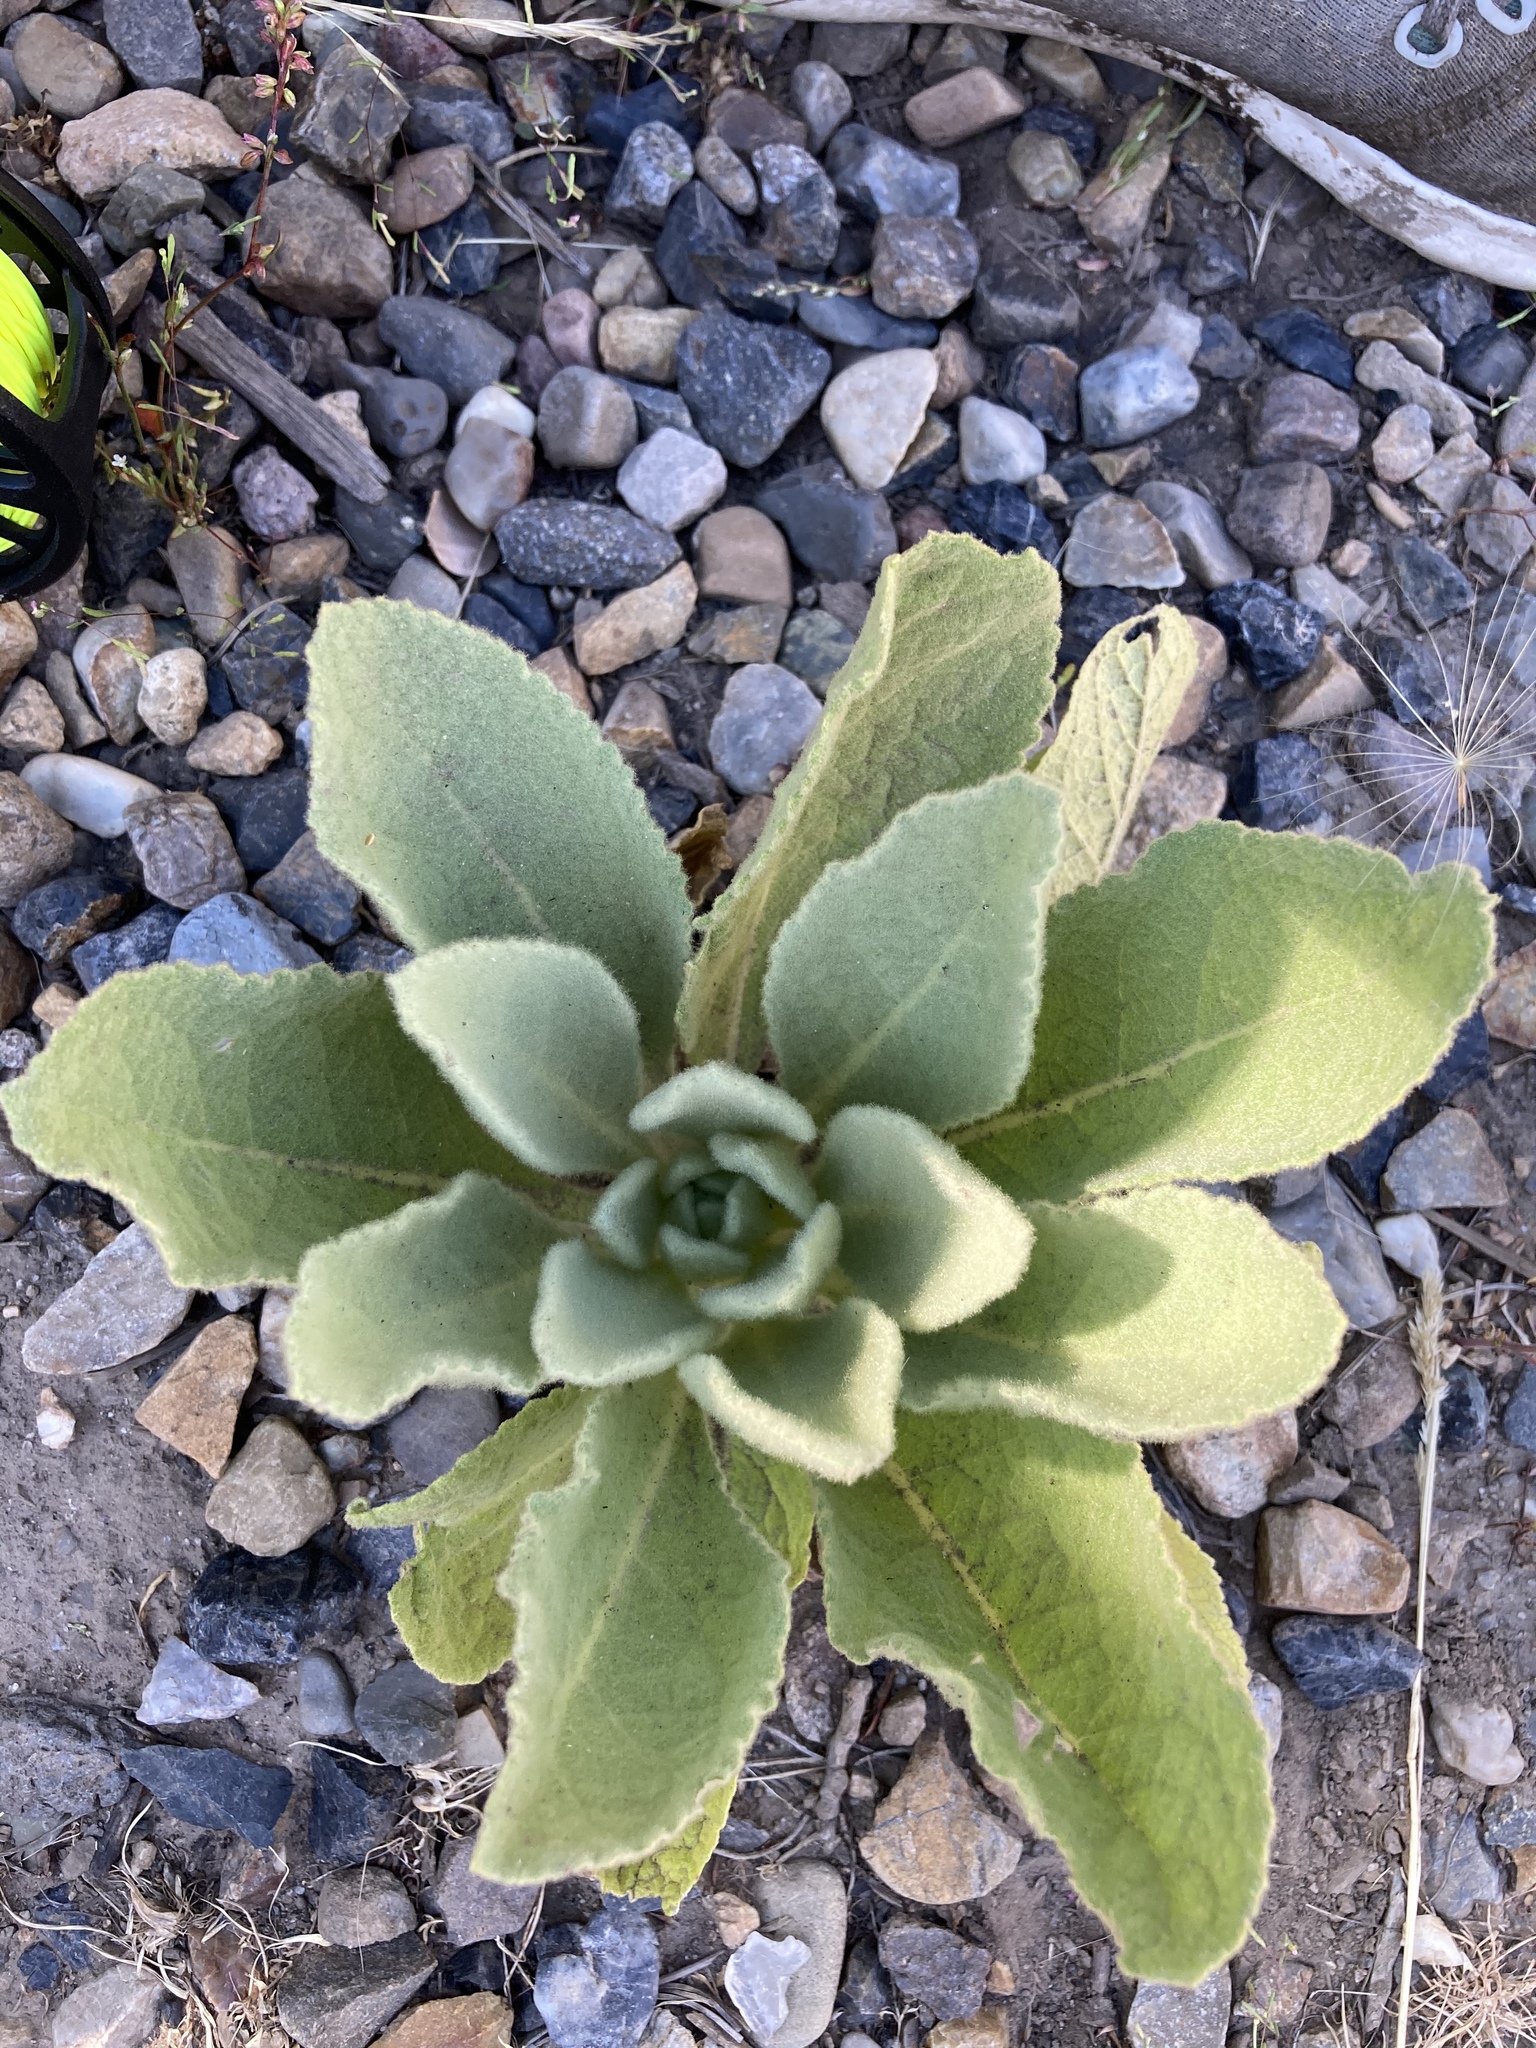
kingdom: Plantae
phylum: Tracheophyta
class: Magnoliopsida
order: Lamiales
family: Scrophulariaceae
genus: Verbascum
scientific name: Verbascum thapsus
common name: Common mullein
